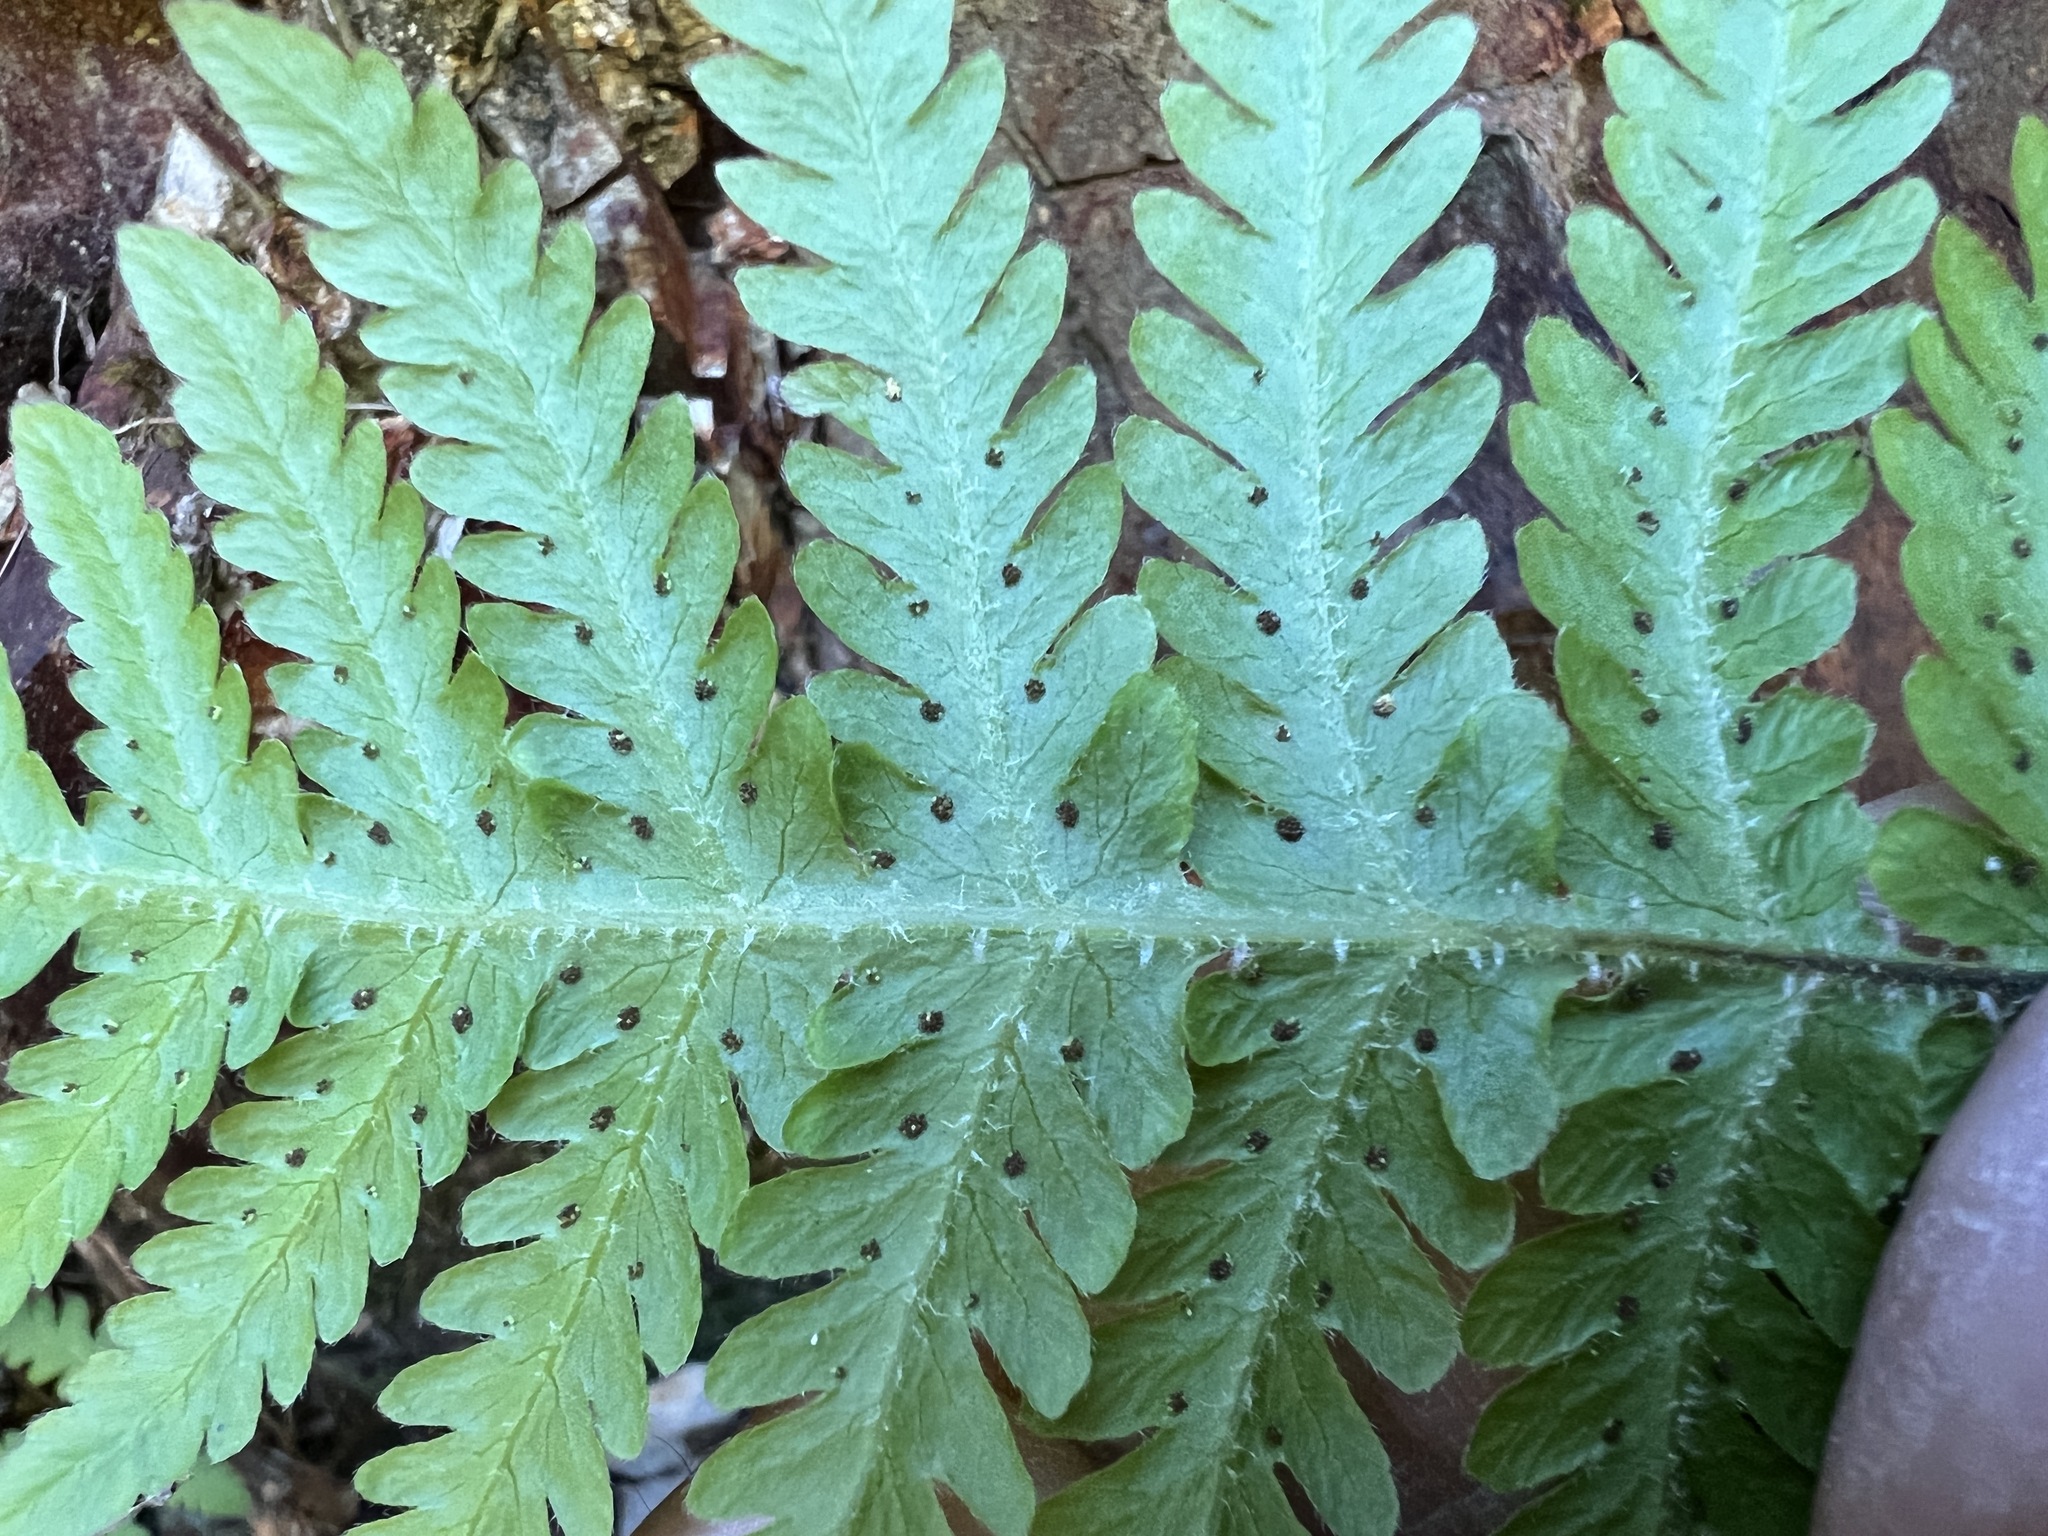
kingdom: Plantae
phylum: Tracheophyta
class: Polypodiopsida
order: Polypodiales
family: Thelypteridaceae
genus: Phegopteris
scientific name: Phegopteris connectilis
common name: Beech fern
